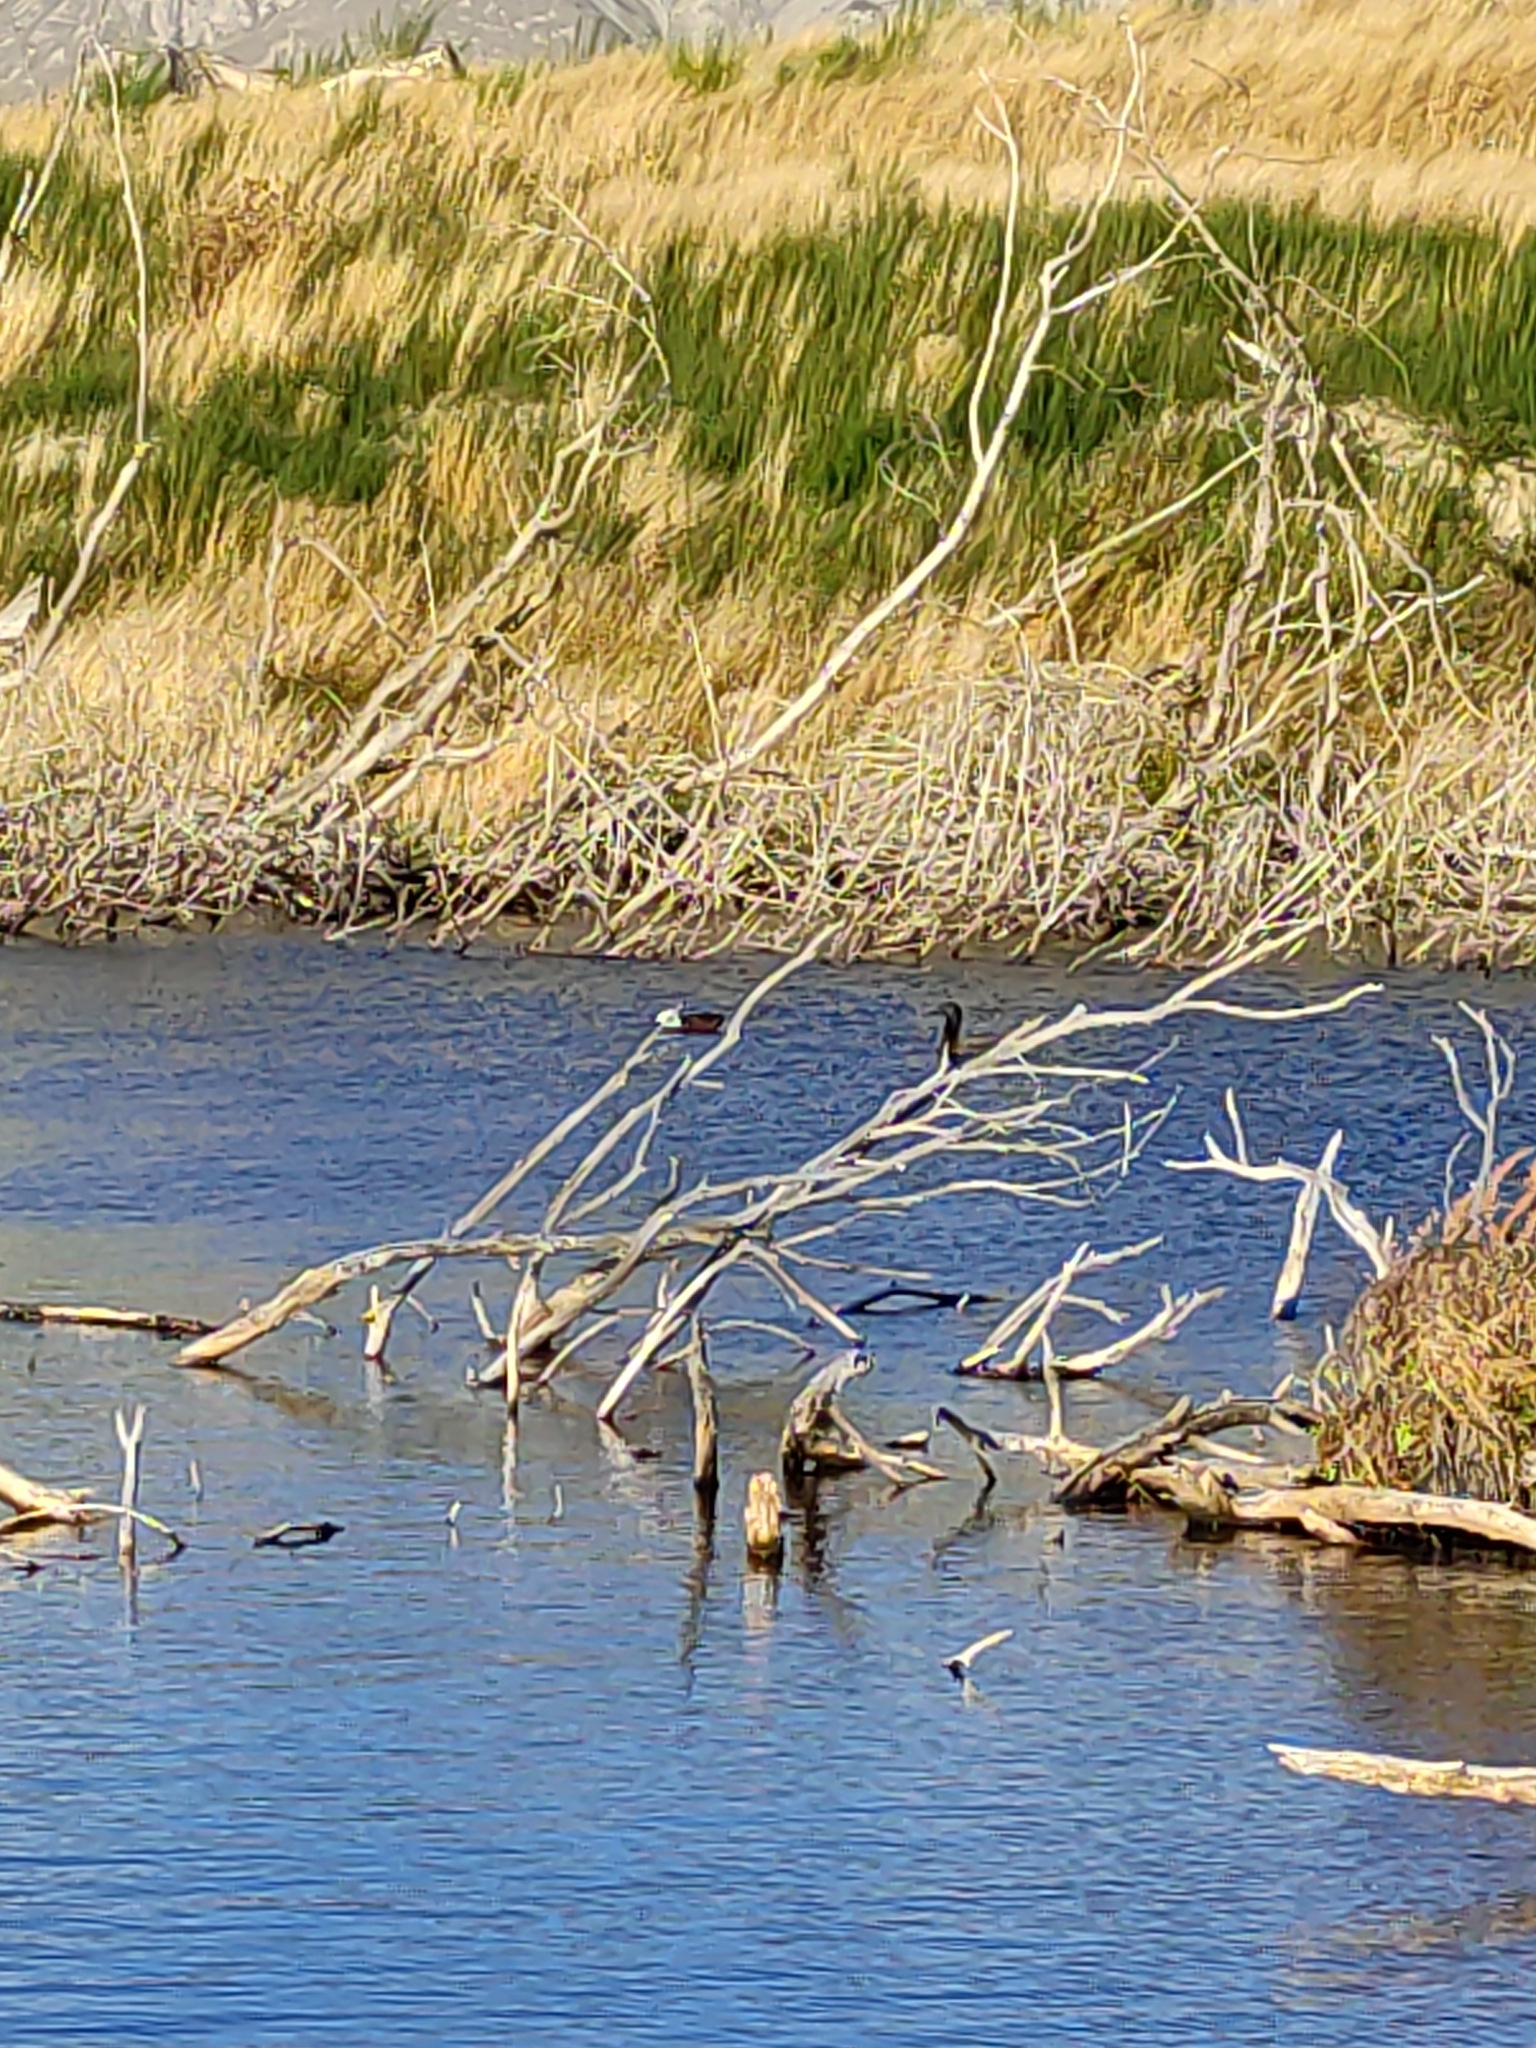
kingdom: Animalia
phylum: Chordata
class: Aves
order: Anseriformes
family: Anatidae
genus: Tadorna
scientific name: Tadorna variegata
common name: Paradise shelduck
